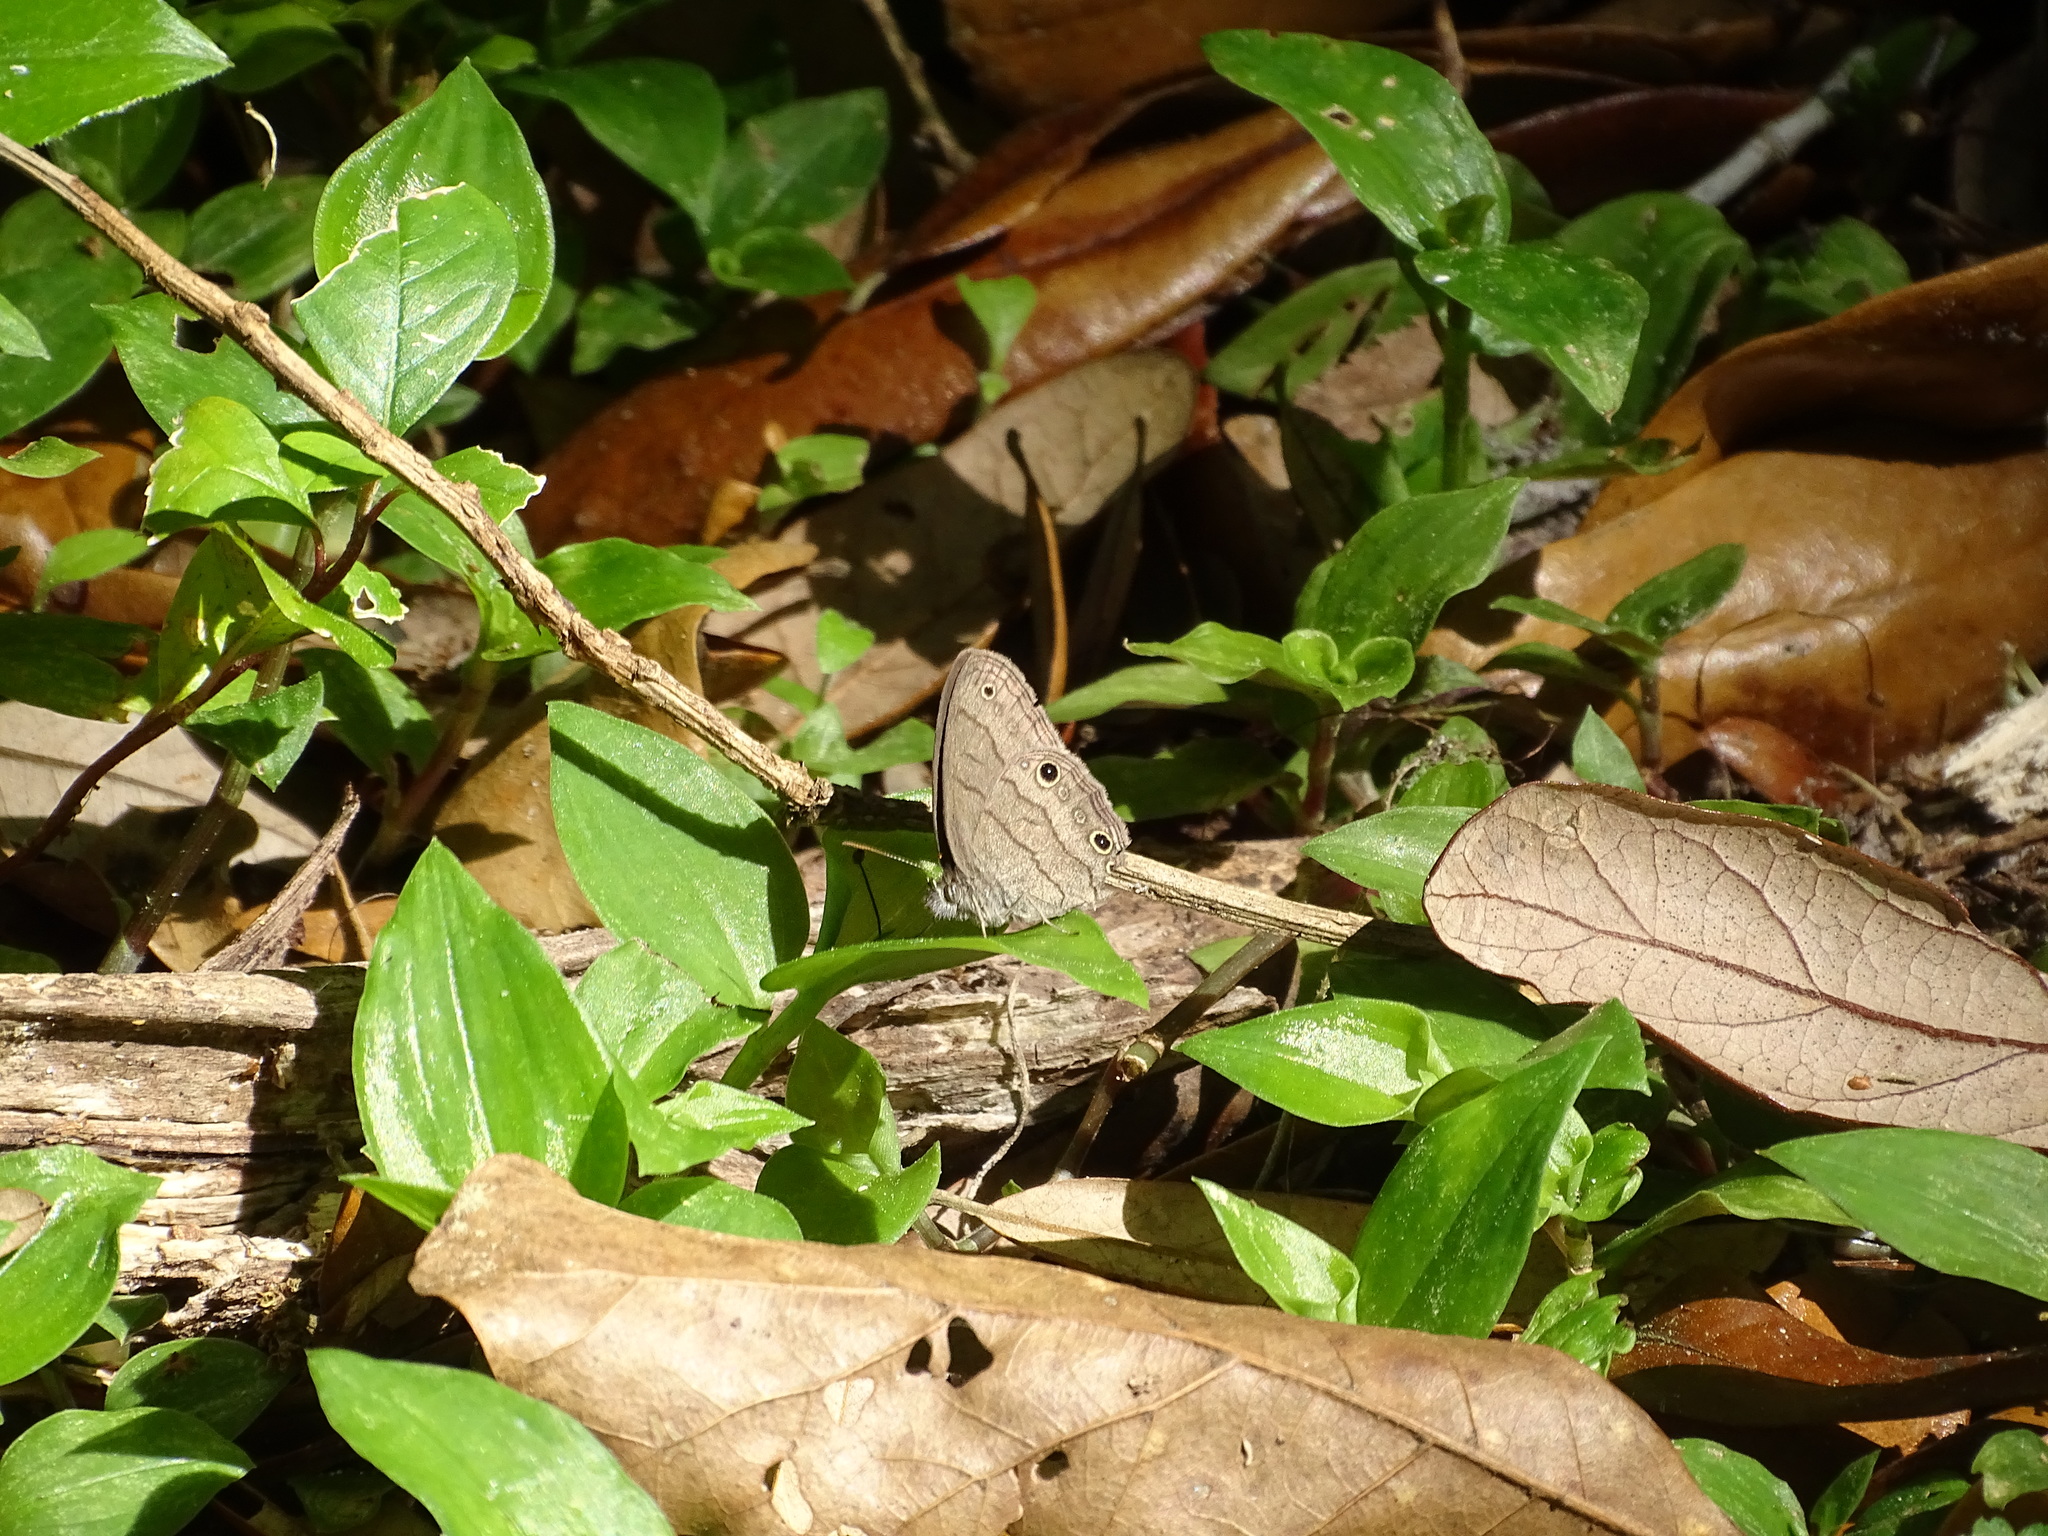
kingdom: Animalia
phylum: Arthropoda
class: Insecta
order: Lepidoptera
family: Nymphalidae
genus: Hermeuptychia
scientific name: Hermeuptychia hermes
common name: Hermes satyr
